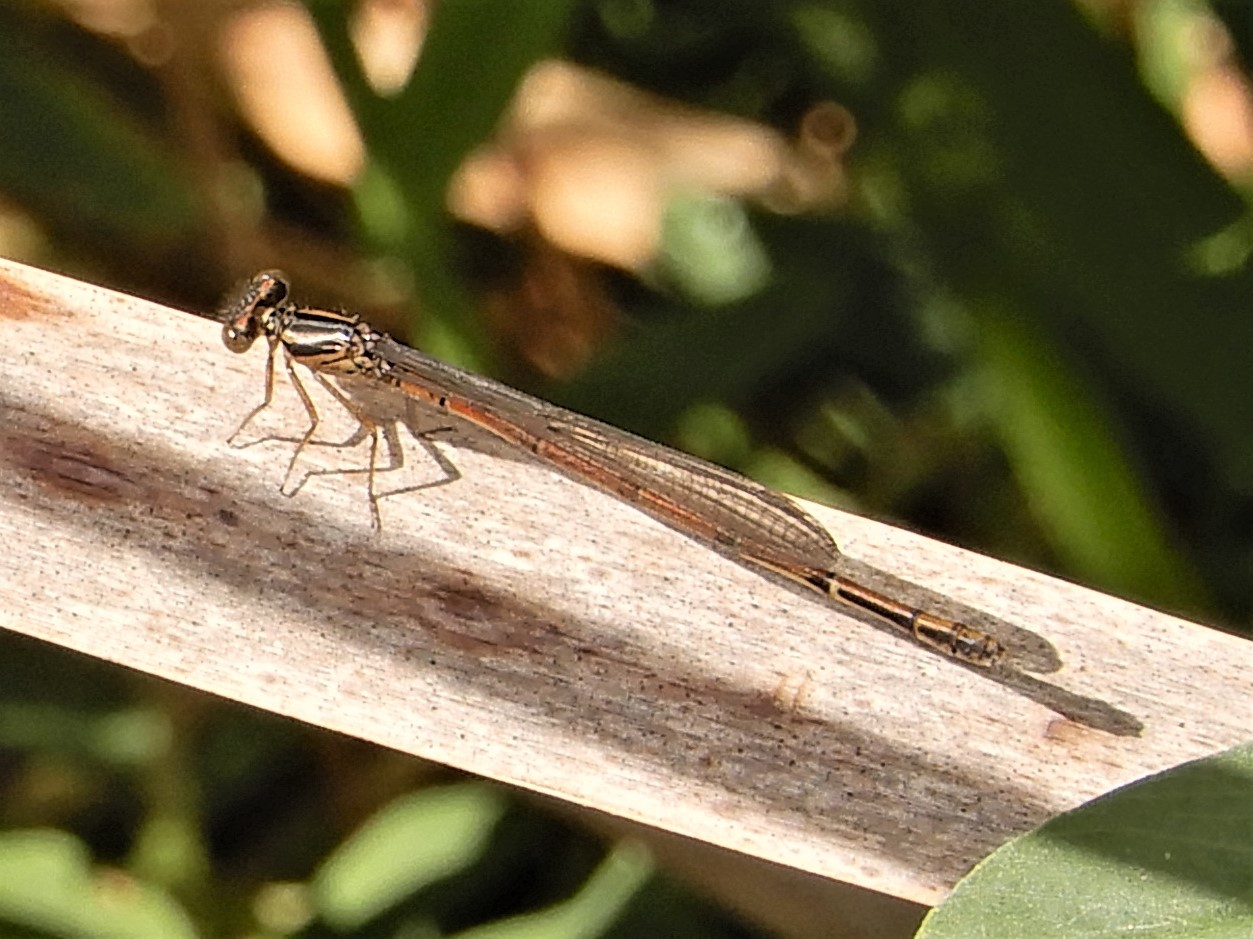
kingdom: Animalia
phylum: Arthropoda
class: Insecta
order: Odonata
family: Coenagrionidae
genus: Xanthocnemis
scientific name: Xanthocnemis zealandica
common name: Common redcoat damselfly
